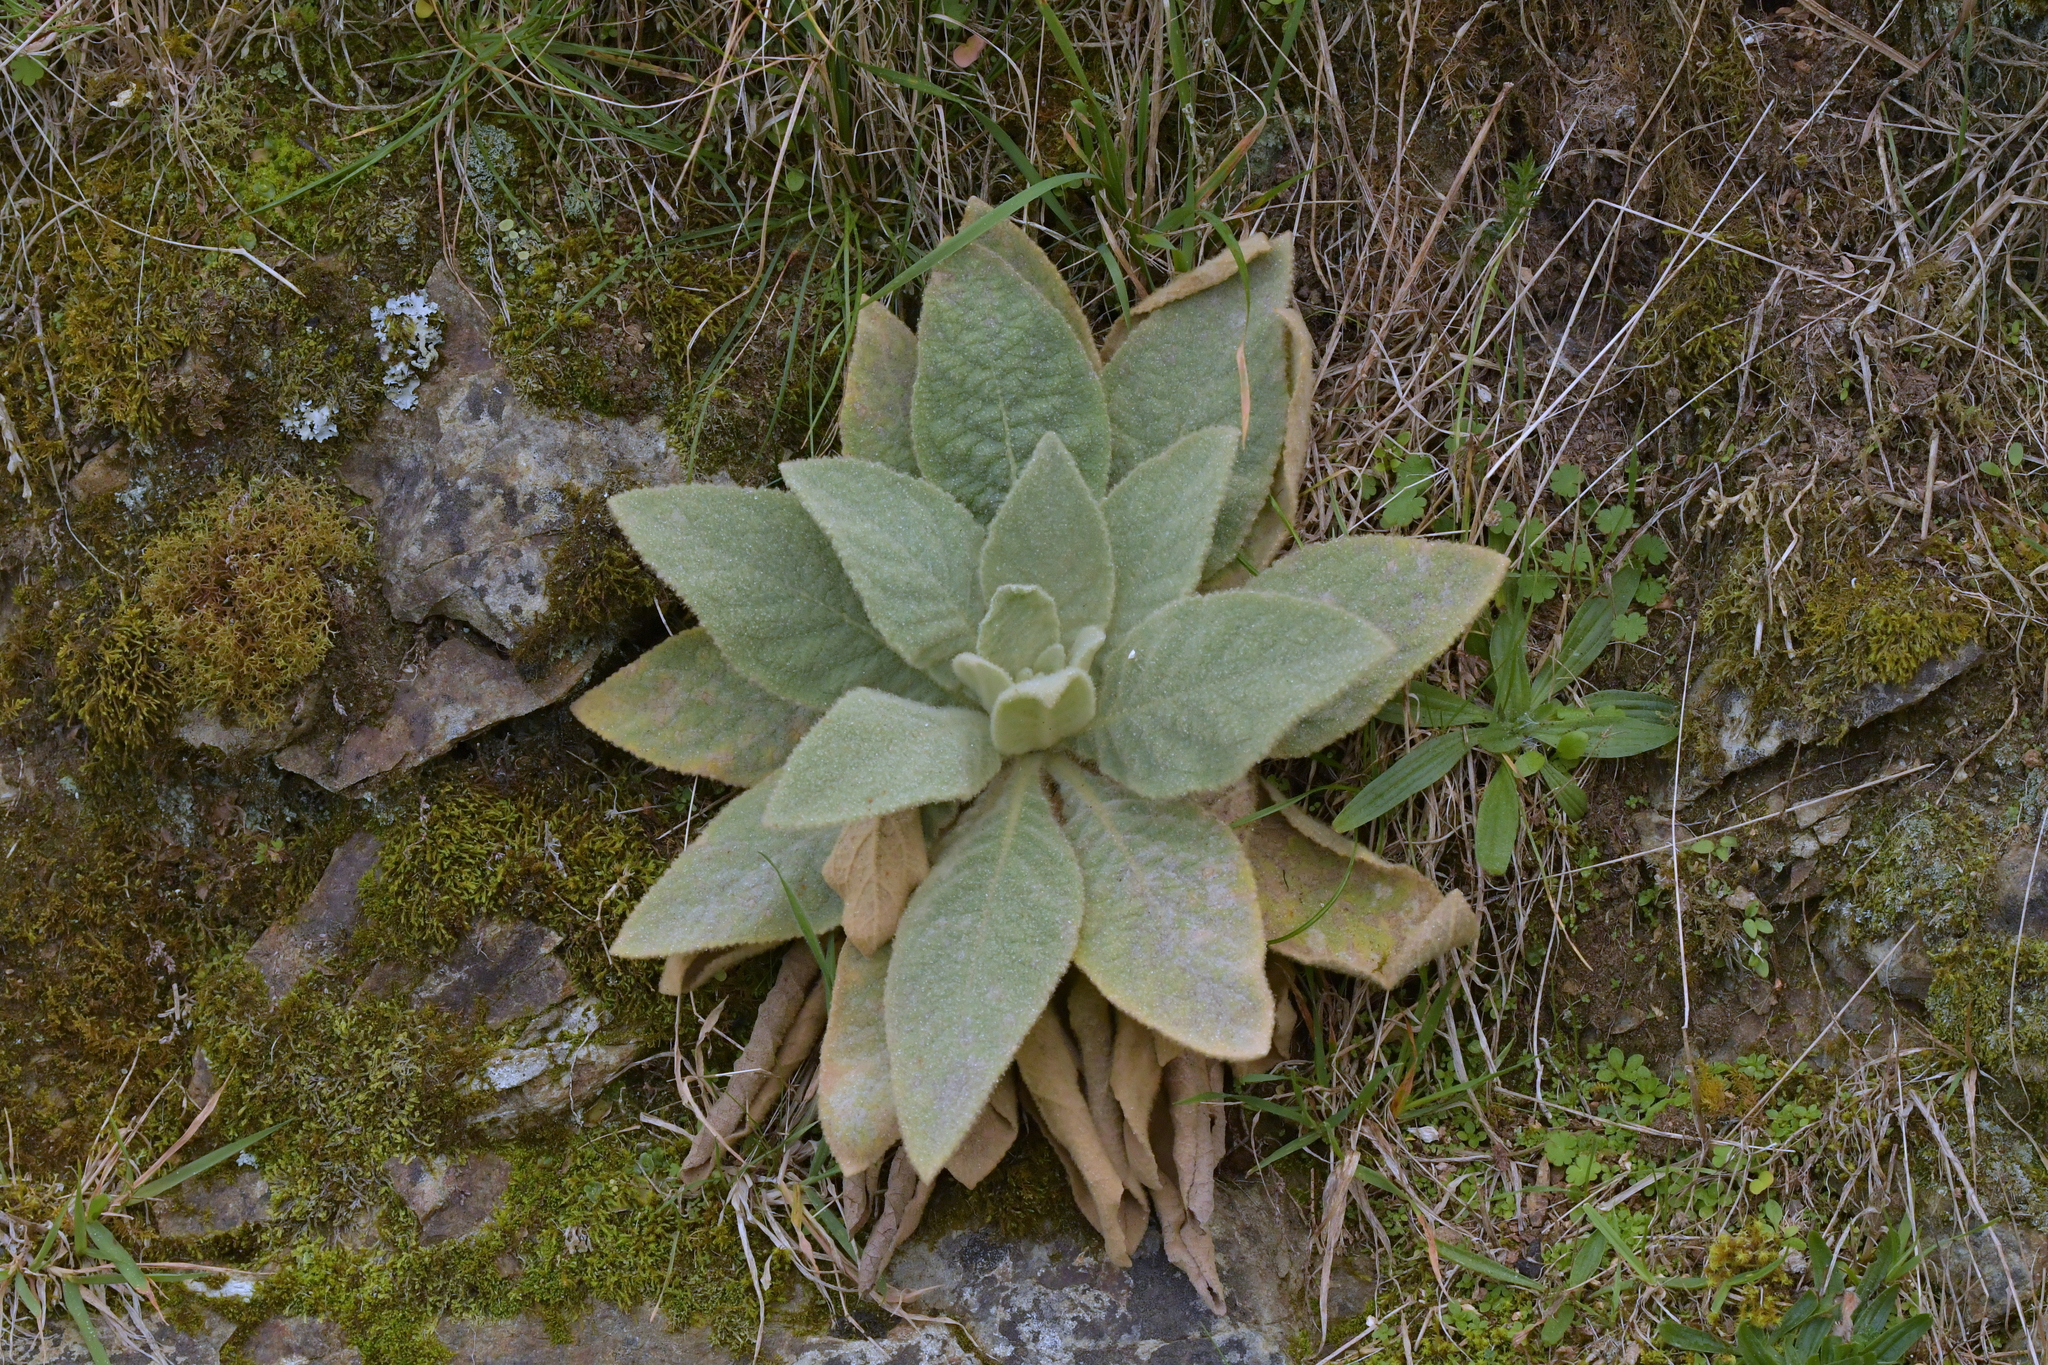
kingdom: Plantae
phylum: Tracheophyta
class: Magnoliopsida
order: Lamiales
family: Scrophulariaceae
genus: Verbascum
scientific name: Verbascum thapsus
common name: Common mullein
